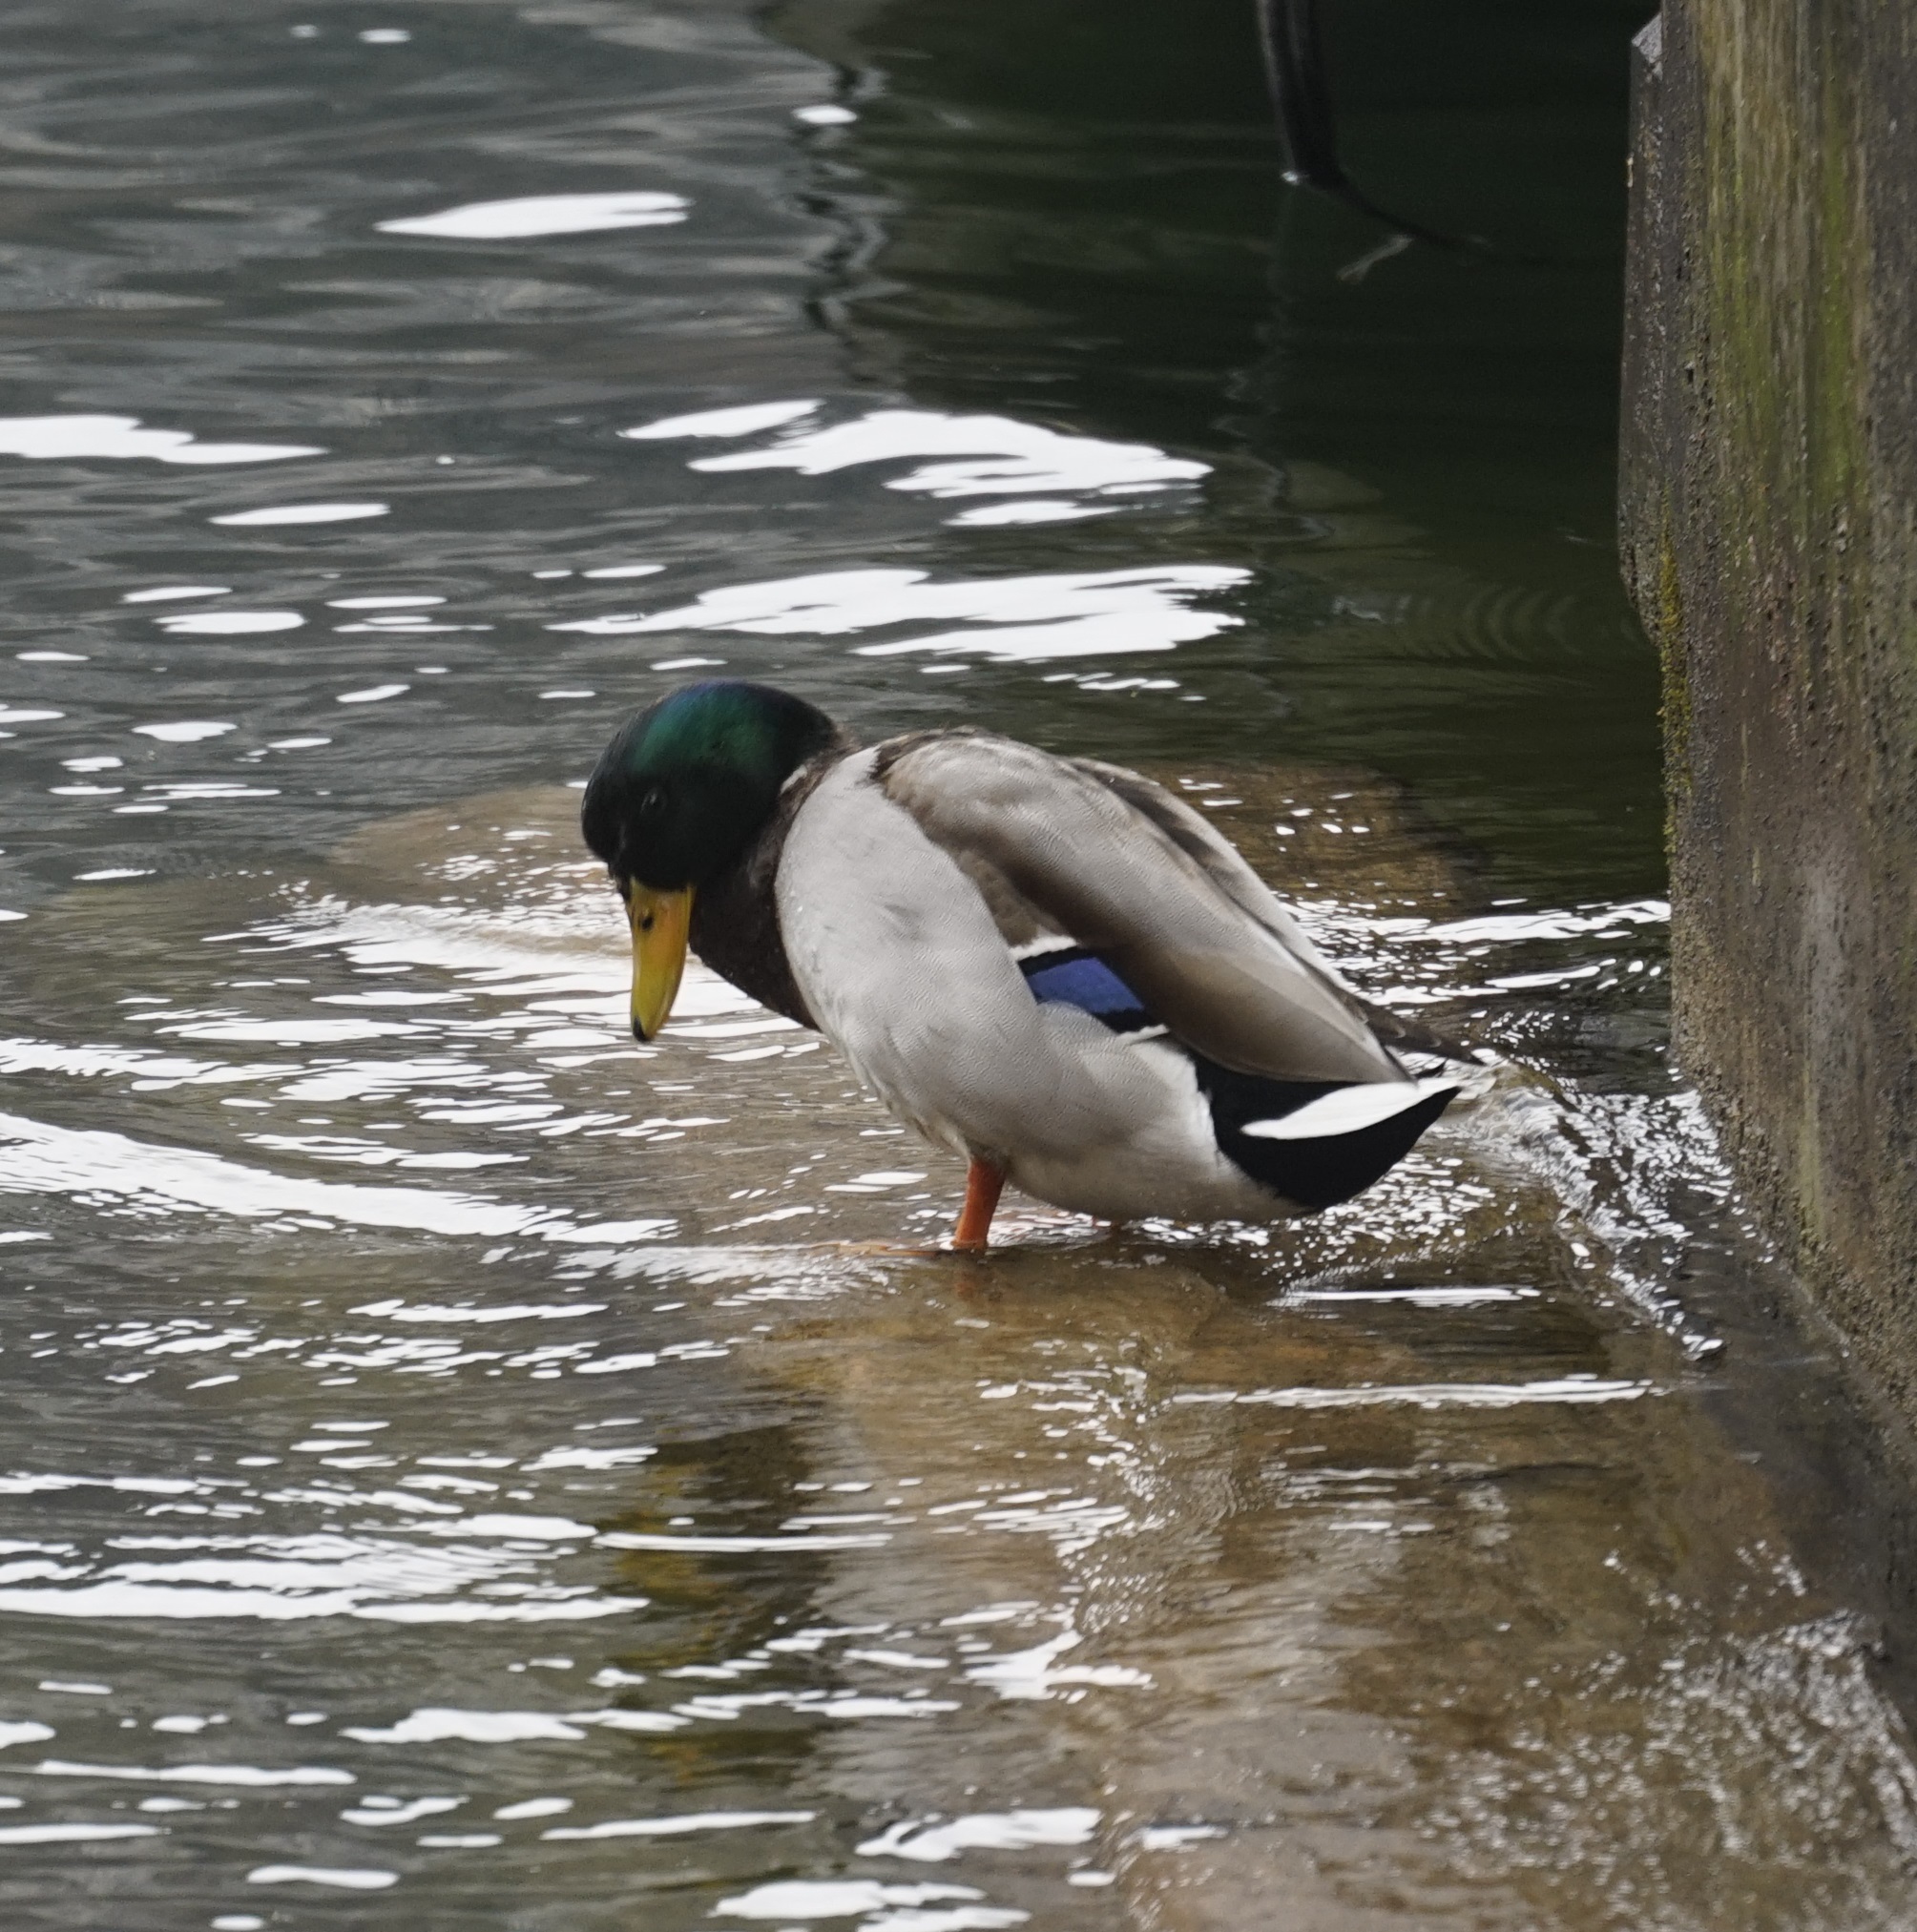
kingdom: Animalia
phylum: Chordata
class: Aves
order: Anseriformes
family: Anatidae
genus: Anas
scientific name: Anas platyrhynchos
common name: Mallard
